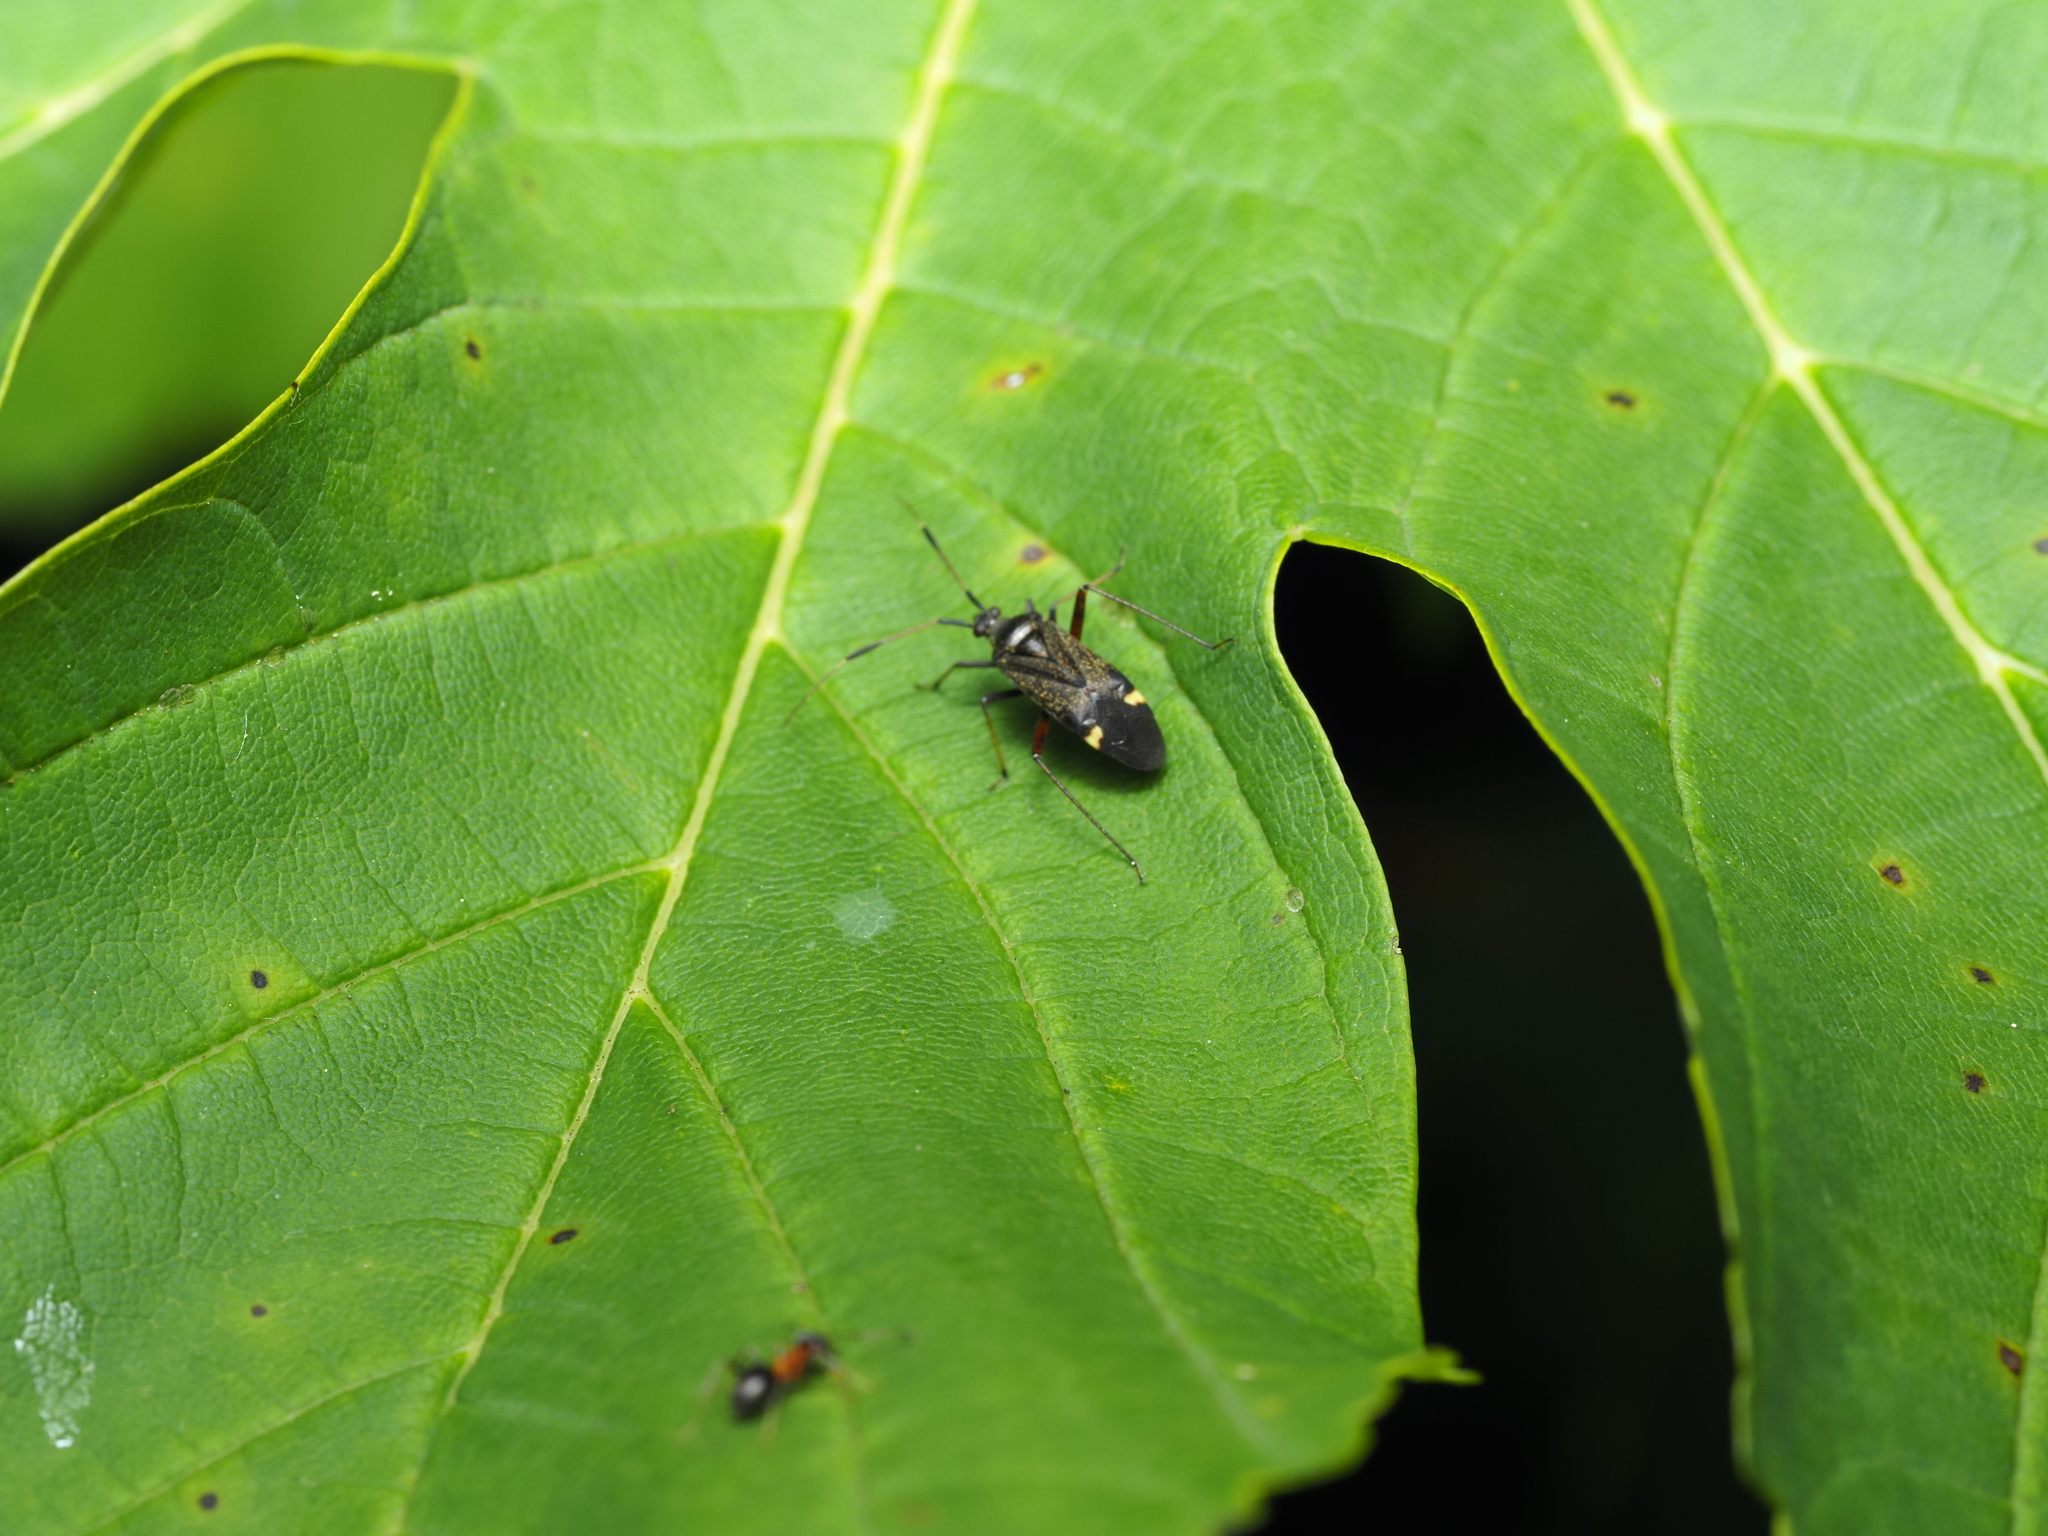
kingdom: Animalia
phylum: Arthropoda
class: Insecta
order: Hemiptera
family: Miridae
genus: Closterotomus
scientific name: Closterotomus biclavatus
